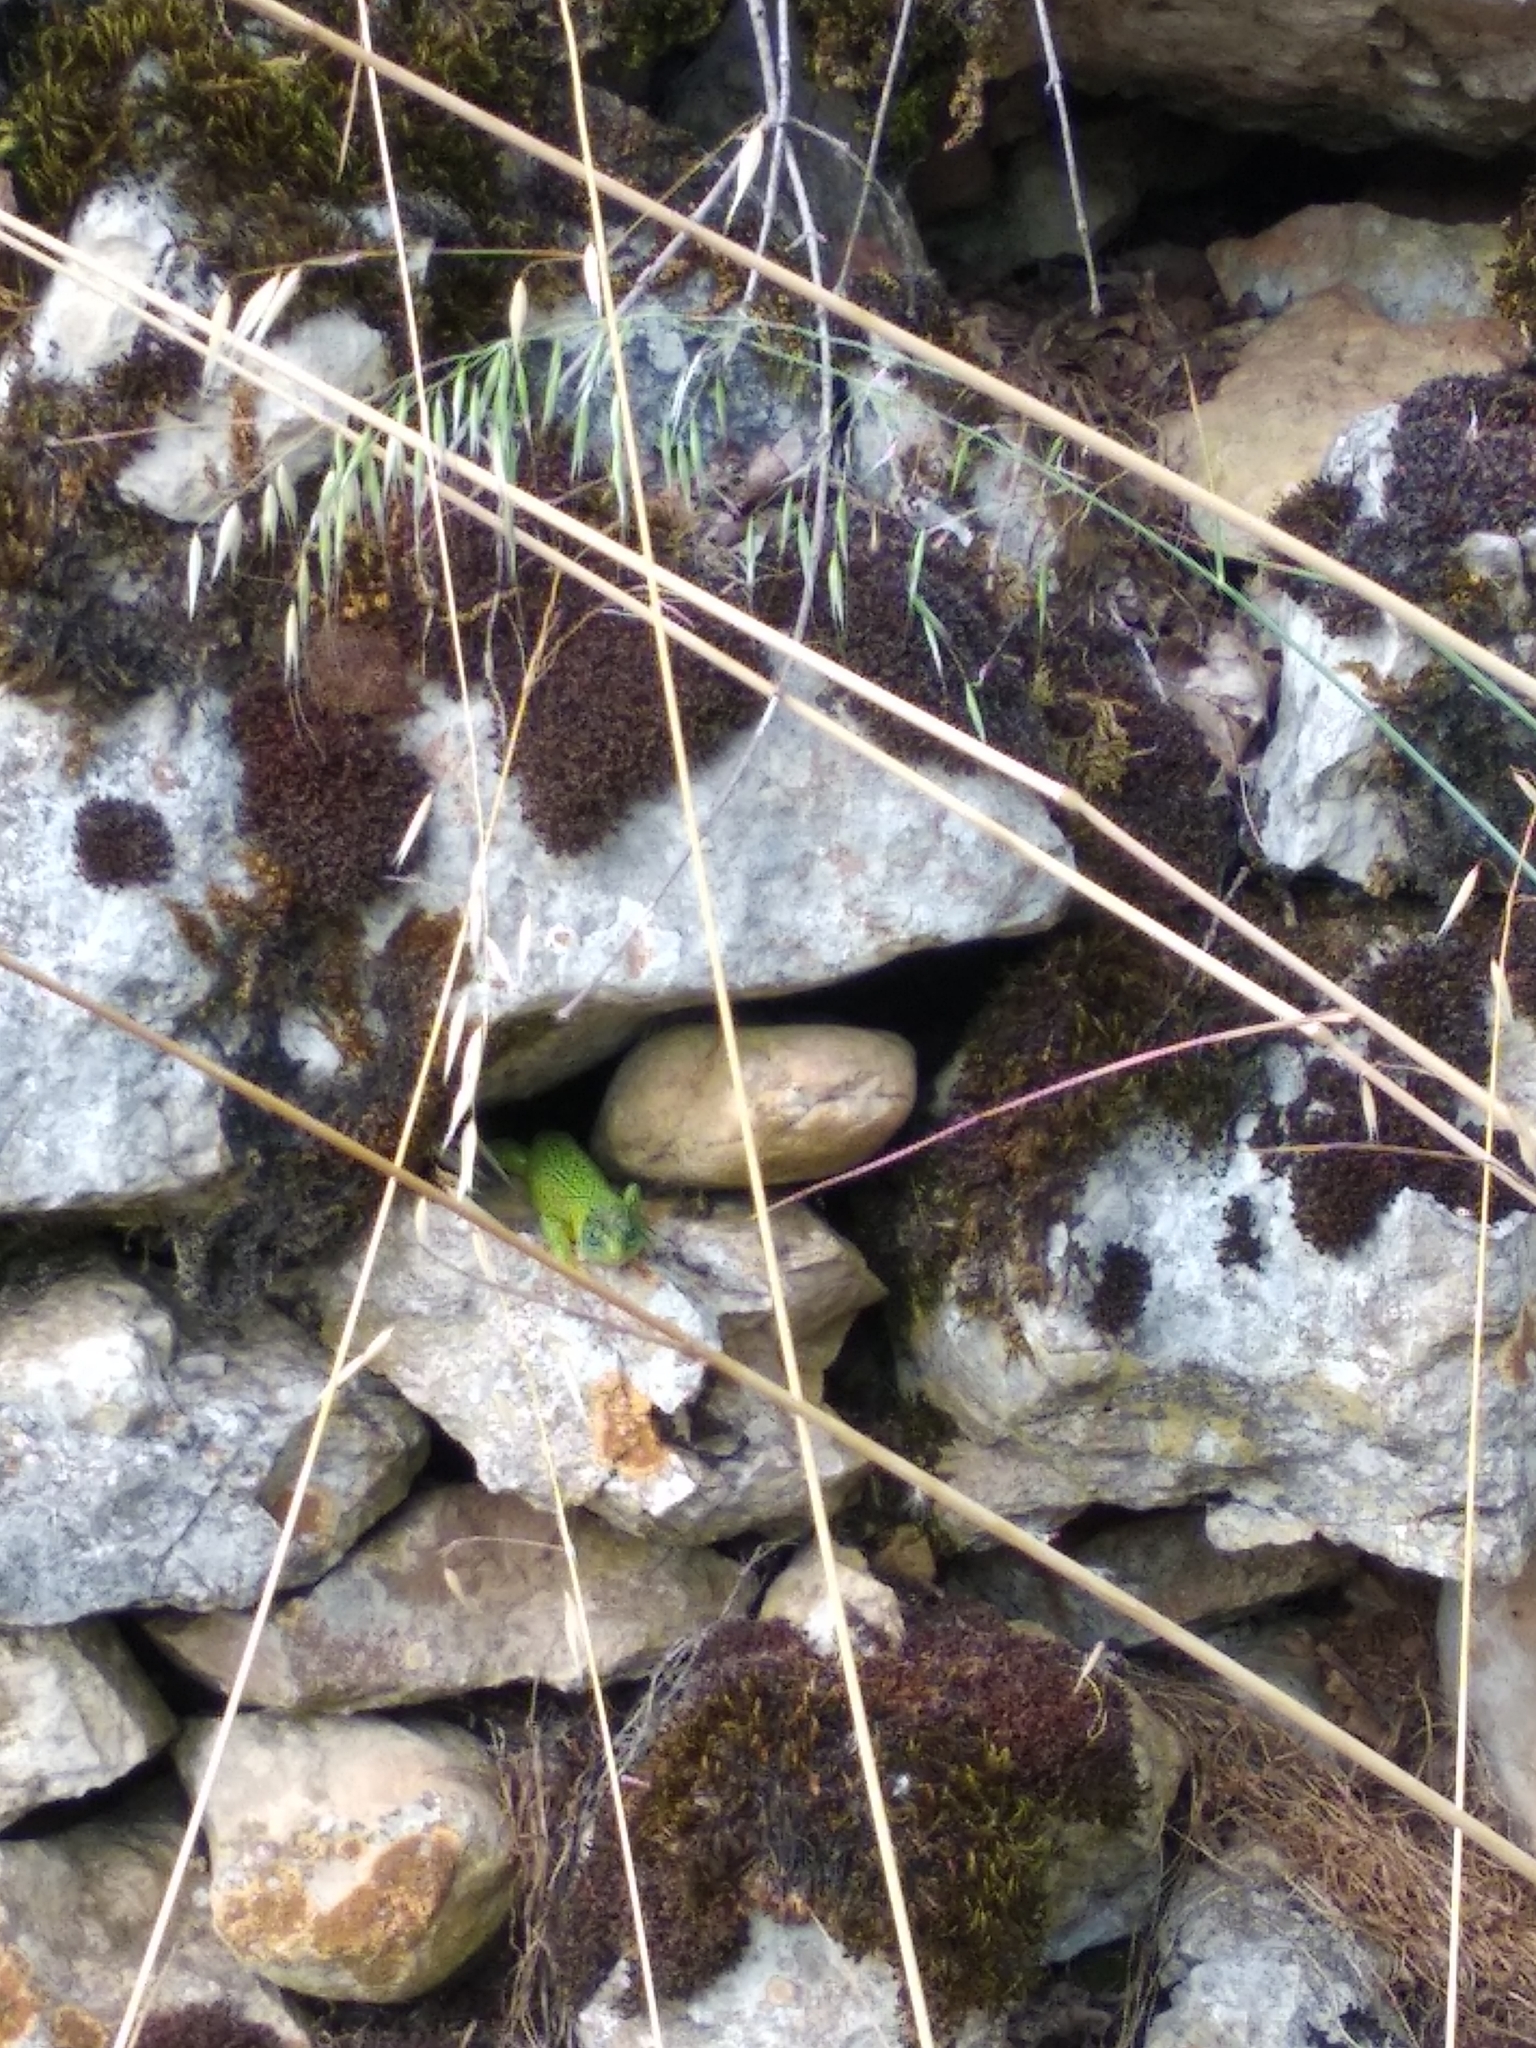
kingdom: Animalia
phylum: Chordata
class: Squamata
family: Lacertidae
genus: Lacerta
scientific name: Lacerta bilineata
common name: Western green lizard
